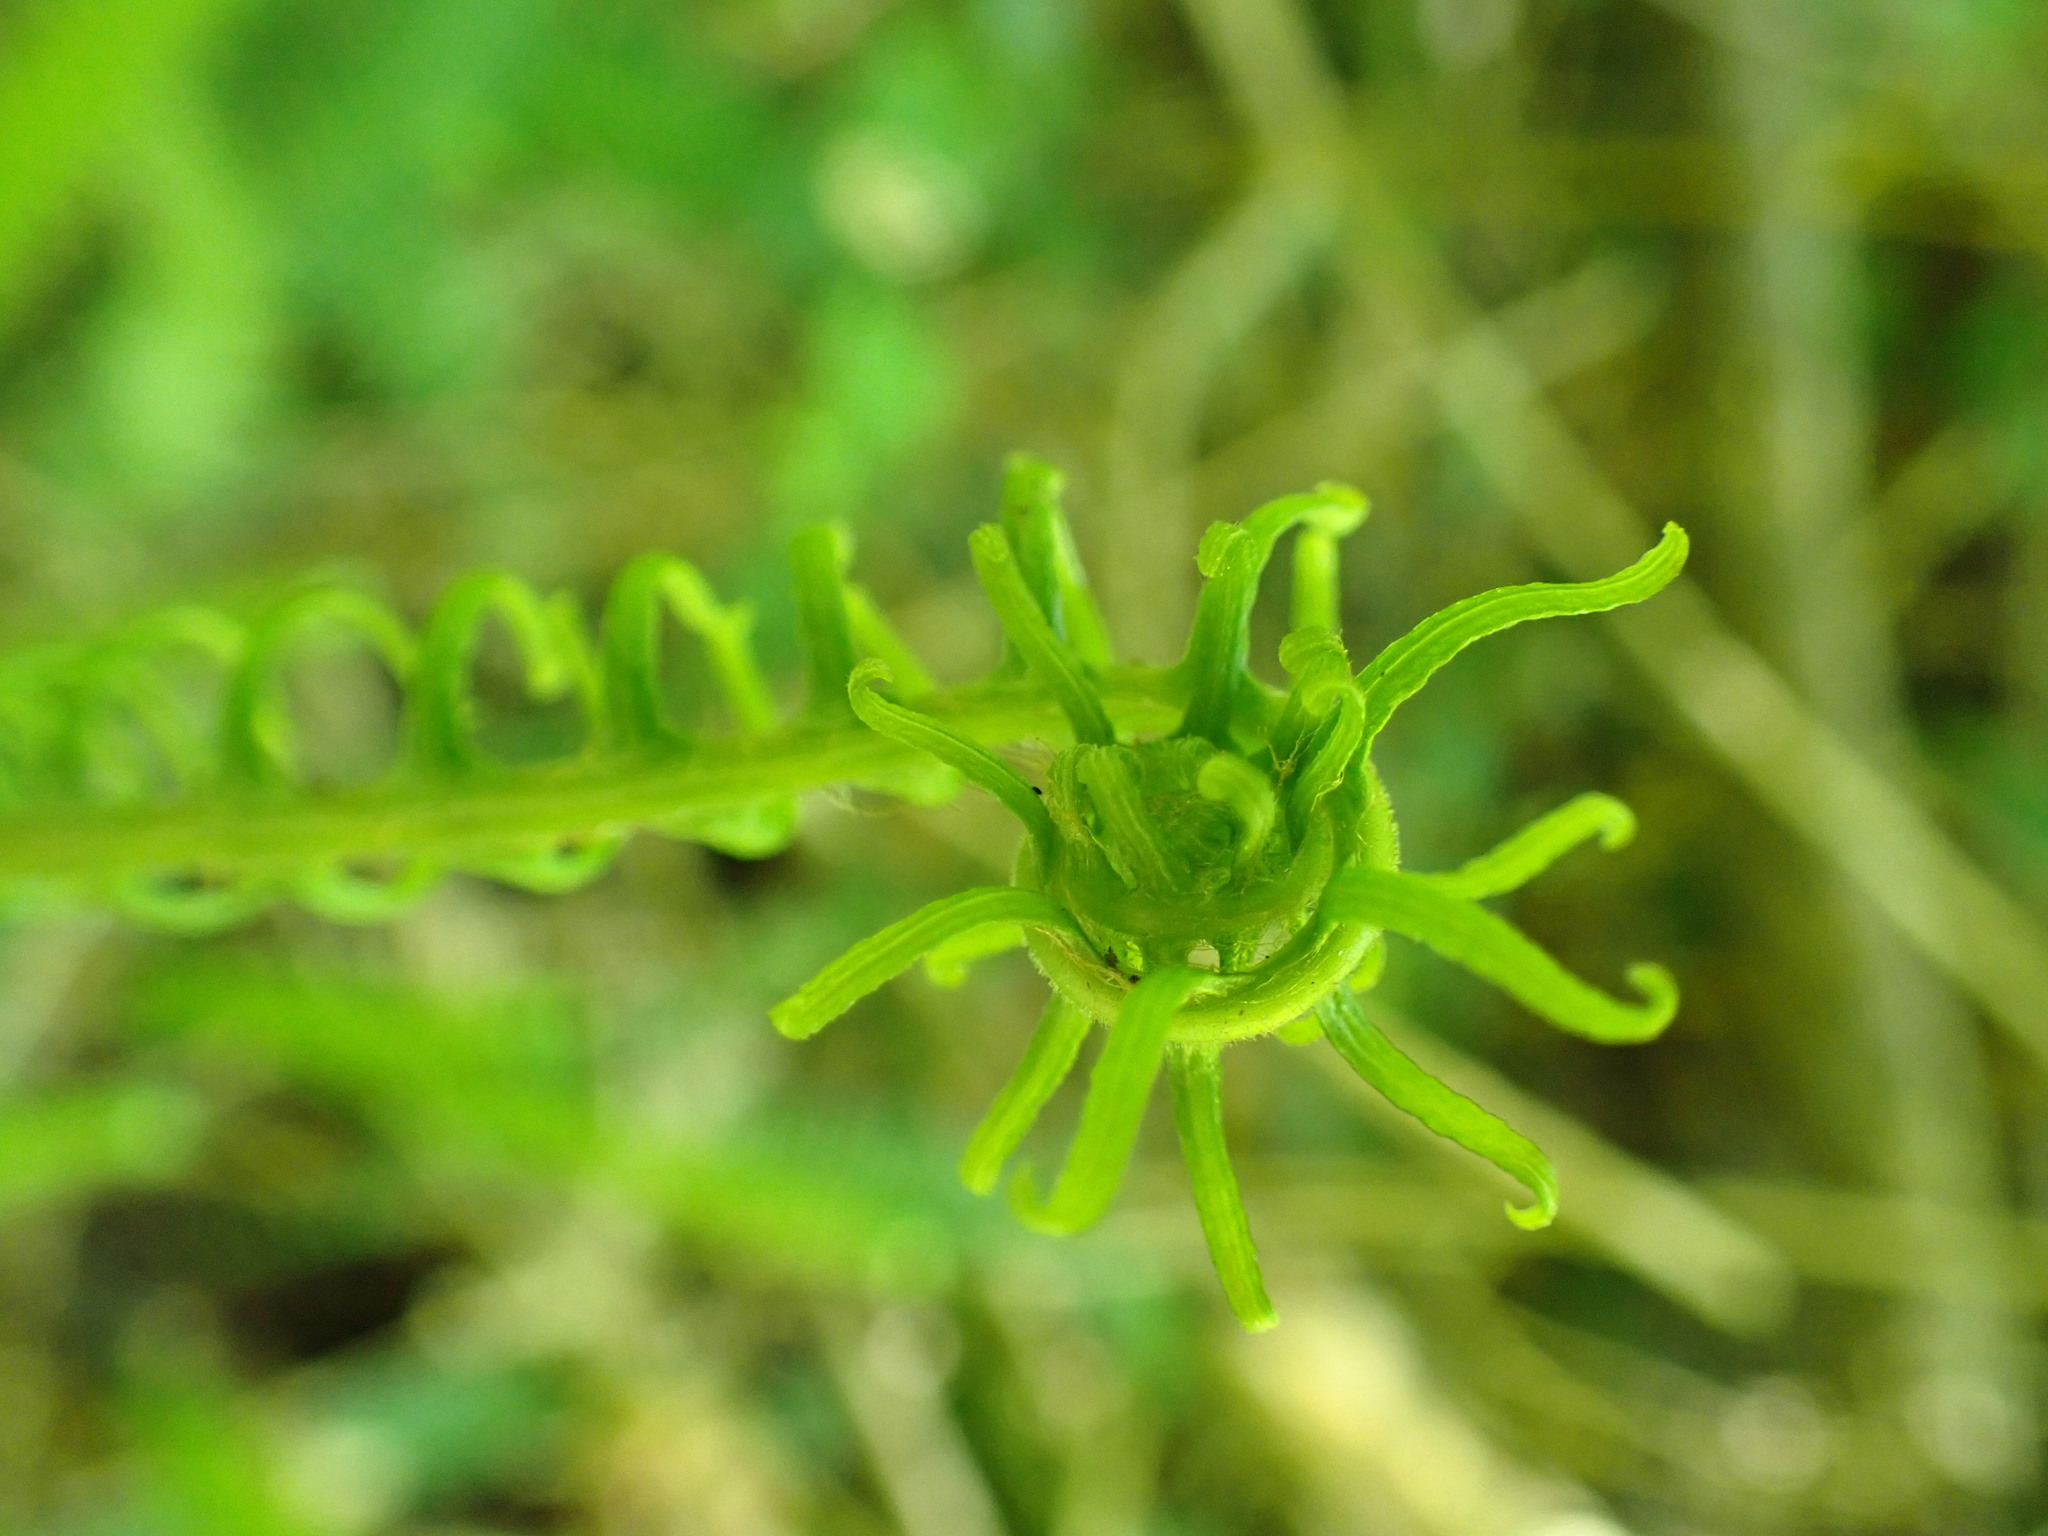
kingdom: Plantae
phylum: Tracheophyta
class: Polypodiopsida
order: Polypodiales
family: Blechnaceae
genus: Struthiopteris
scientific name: Struthiopteris spicant
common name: Deer fern
